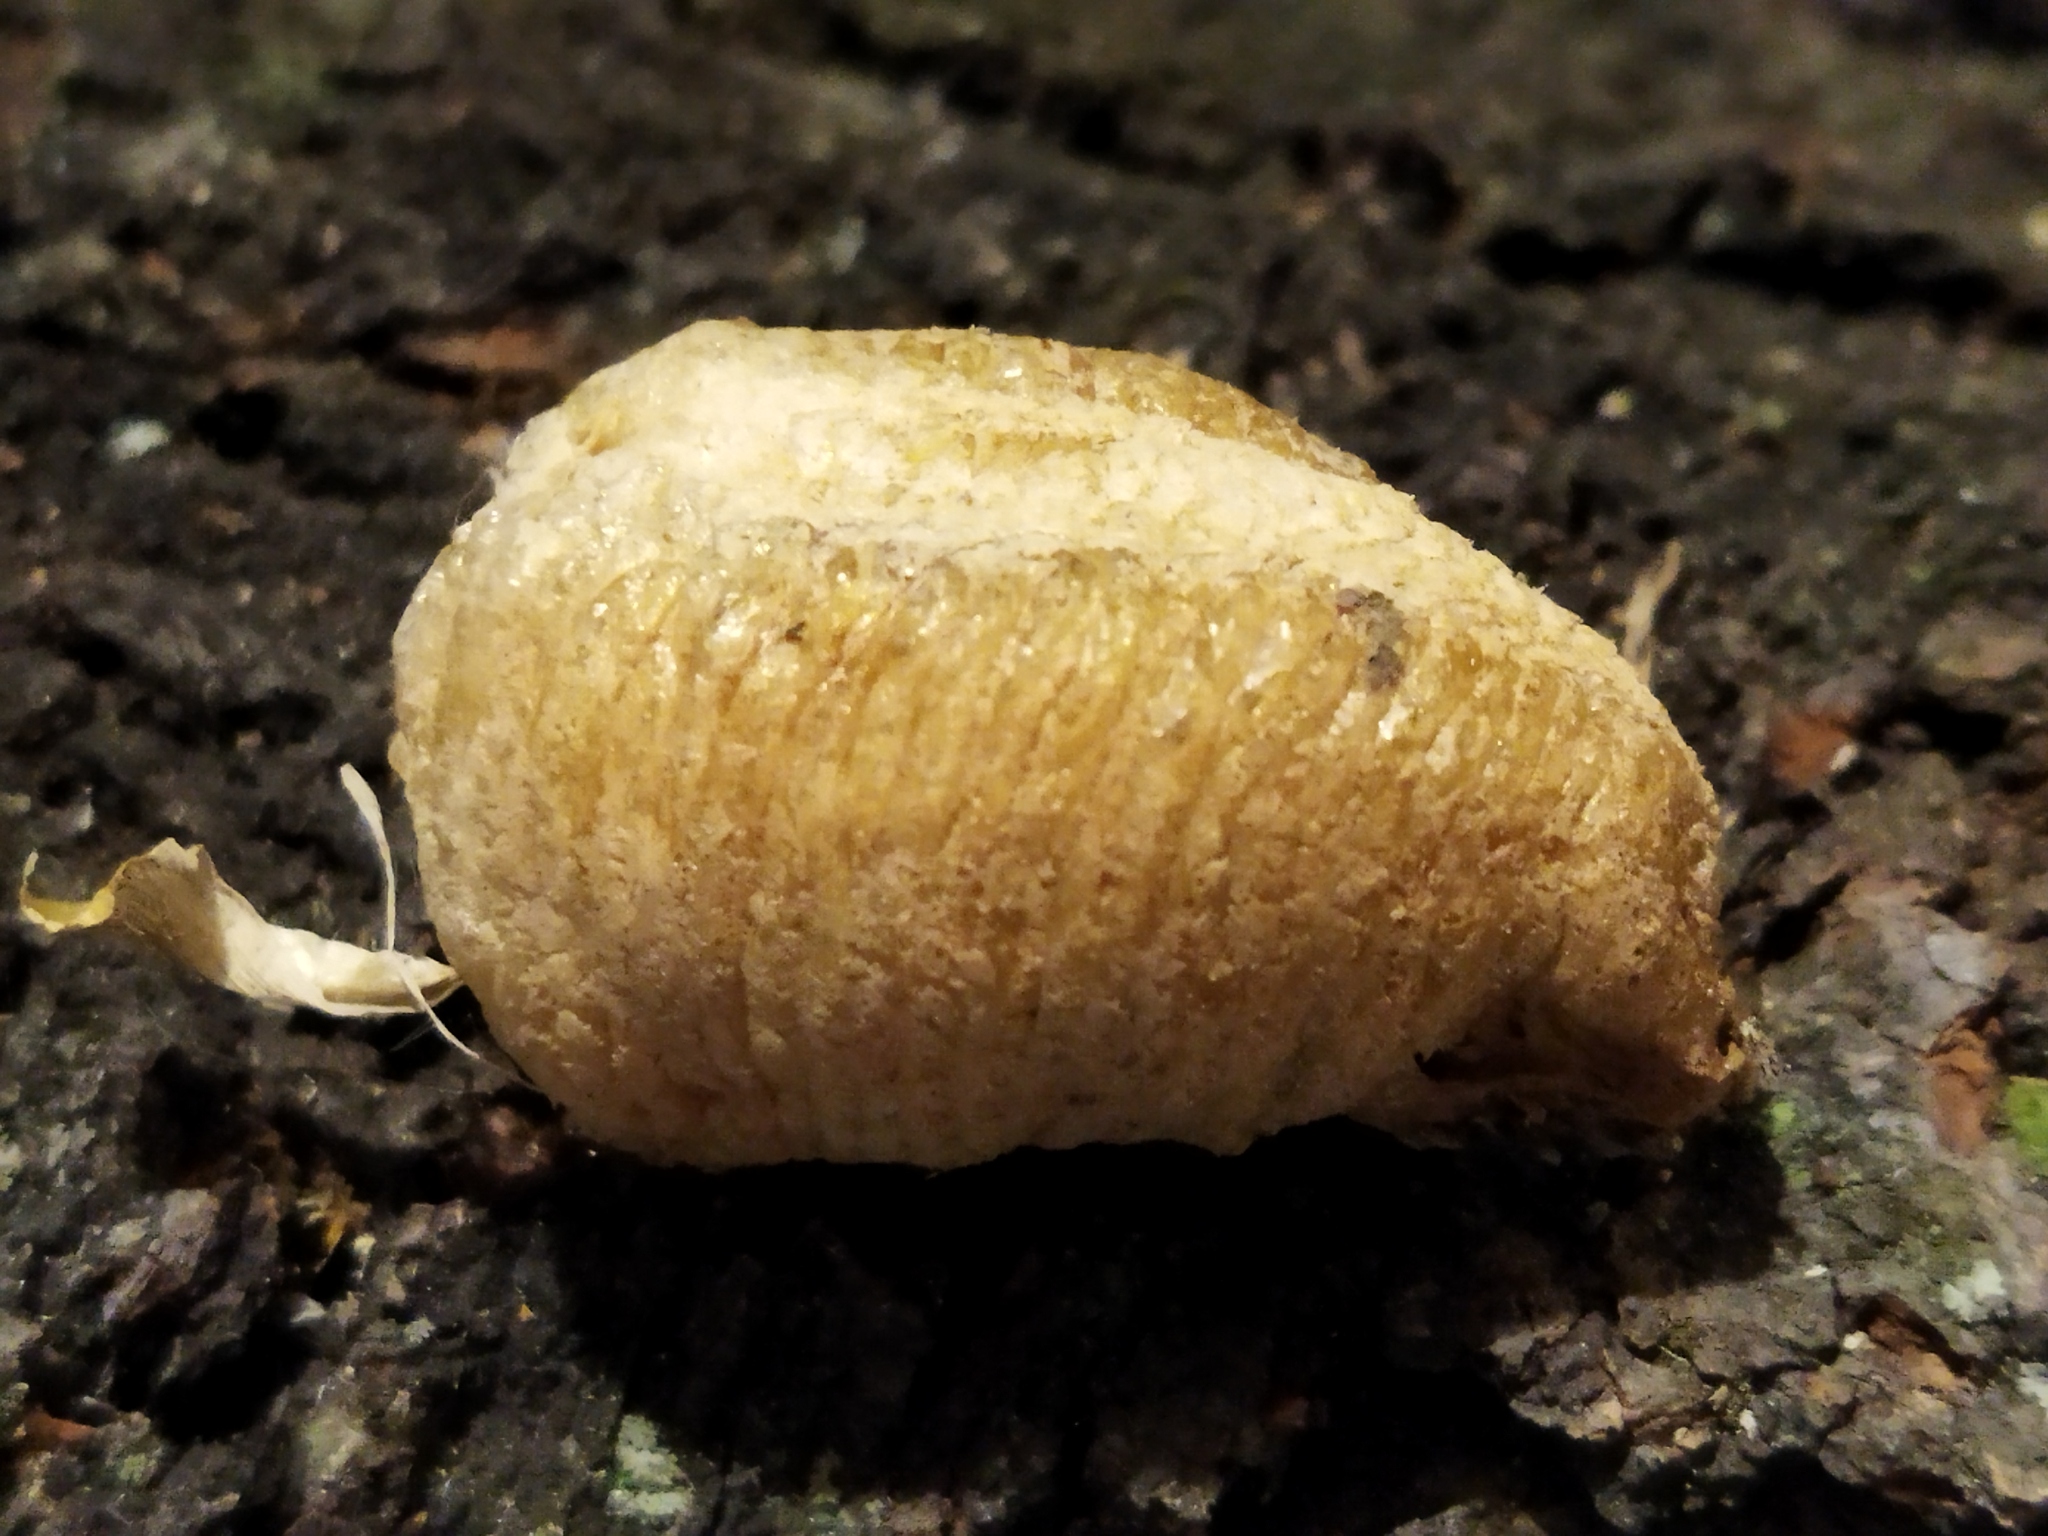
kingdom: Animalia
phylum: Arthropoda
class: Insecta
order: Mantodea
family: Mantidae
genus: Mantis
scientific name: Mantis religiosa
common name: Praying mantis
